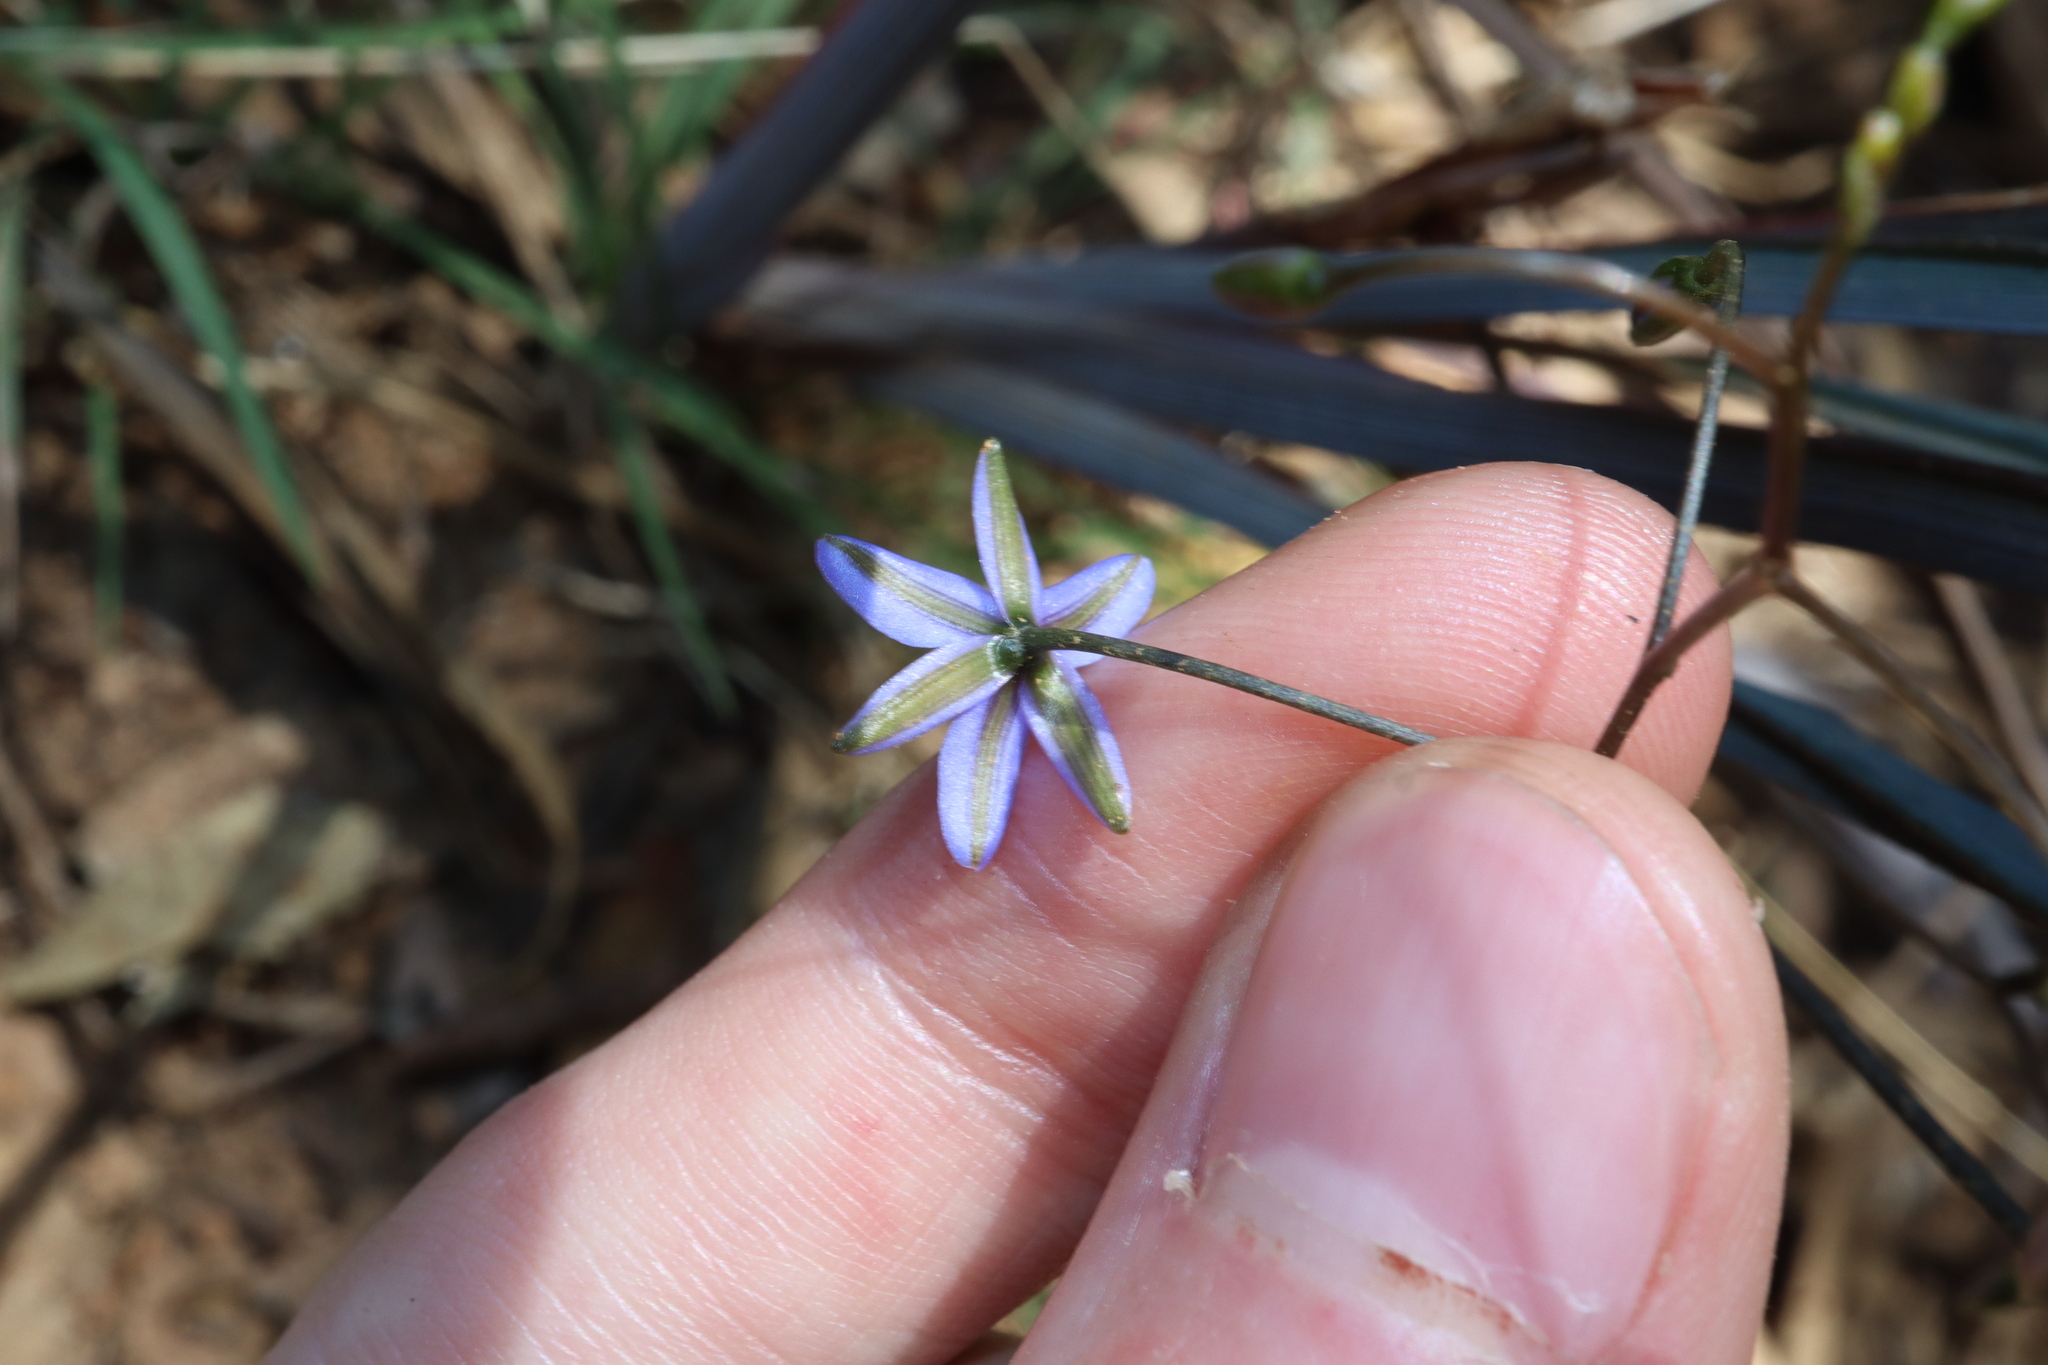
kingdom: Plantae
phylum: Tracheophyta
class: Liliopsida
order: Asparagales
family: Asphodelaceae
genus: Dianella
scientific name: Dianella revoluta
